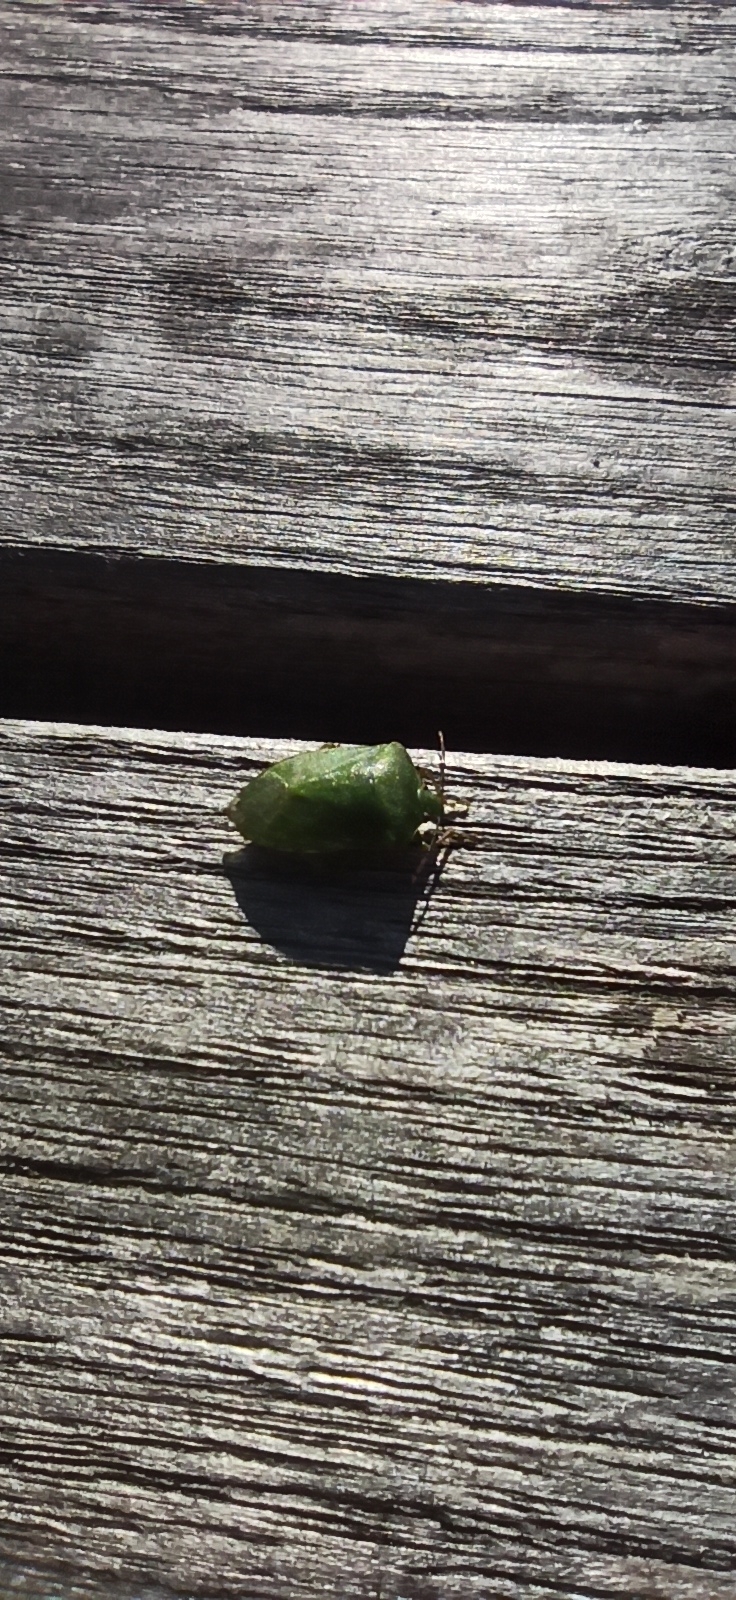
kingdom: Animalia
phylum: Arthropoda
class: Insecta
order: Hemiptera
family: Pentatomidae
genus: Nezara
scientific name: Nezara viridula
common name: Southern green stink bug
